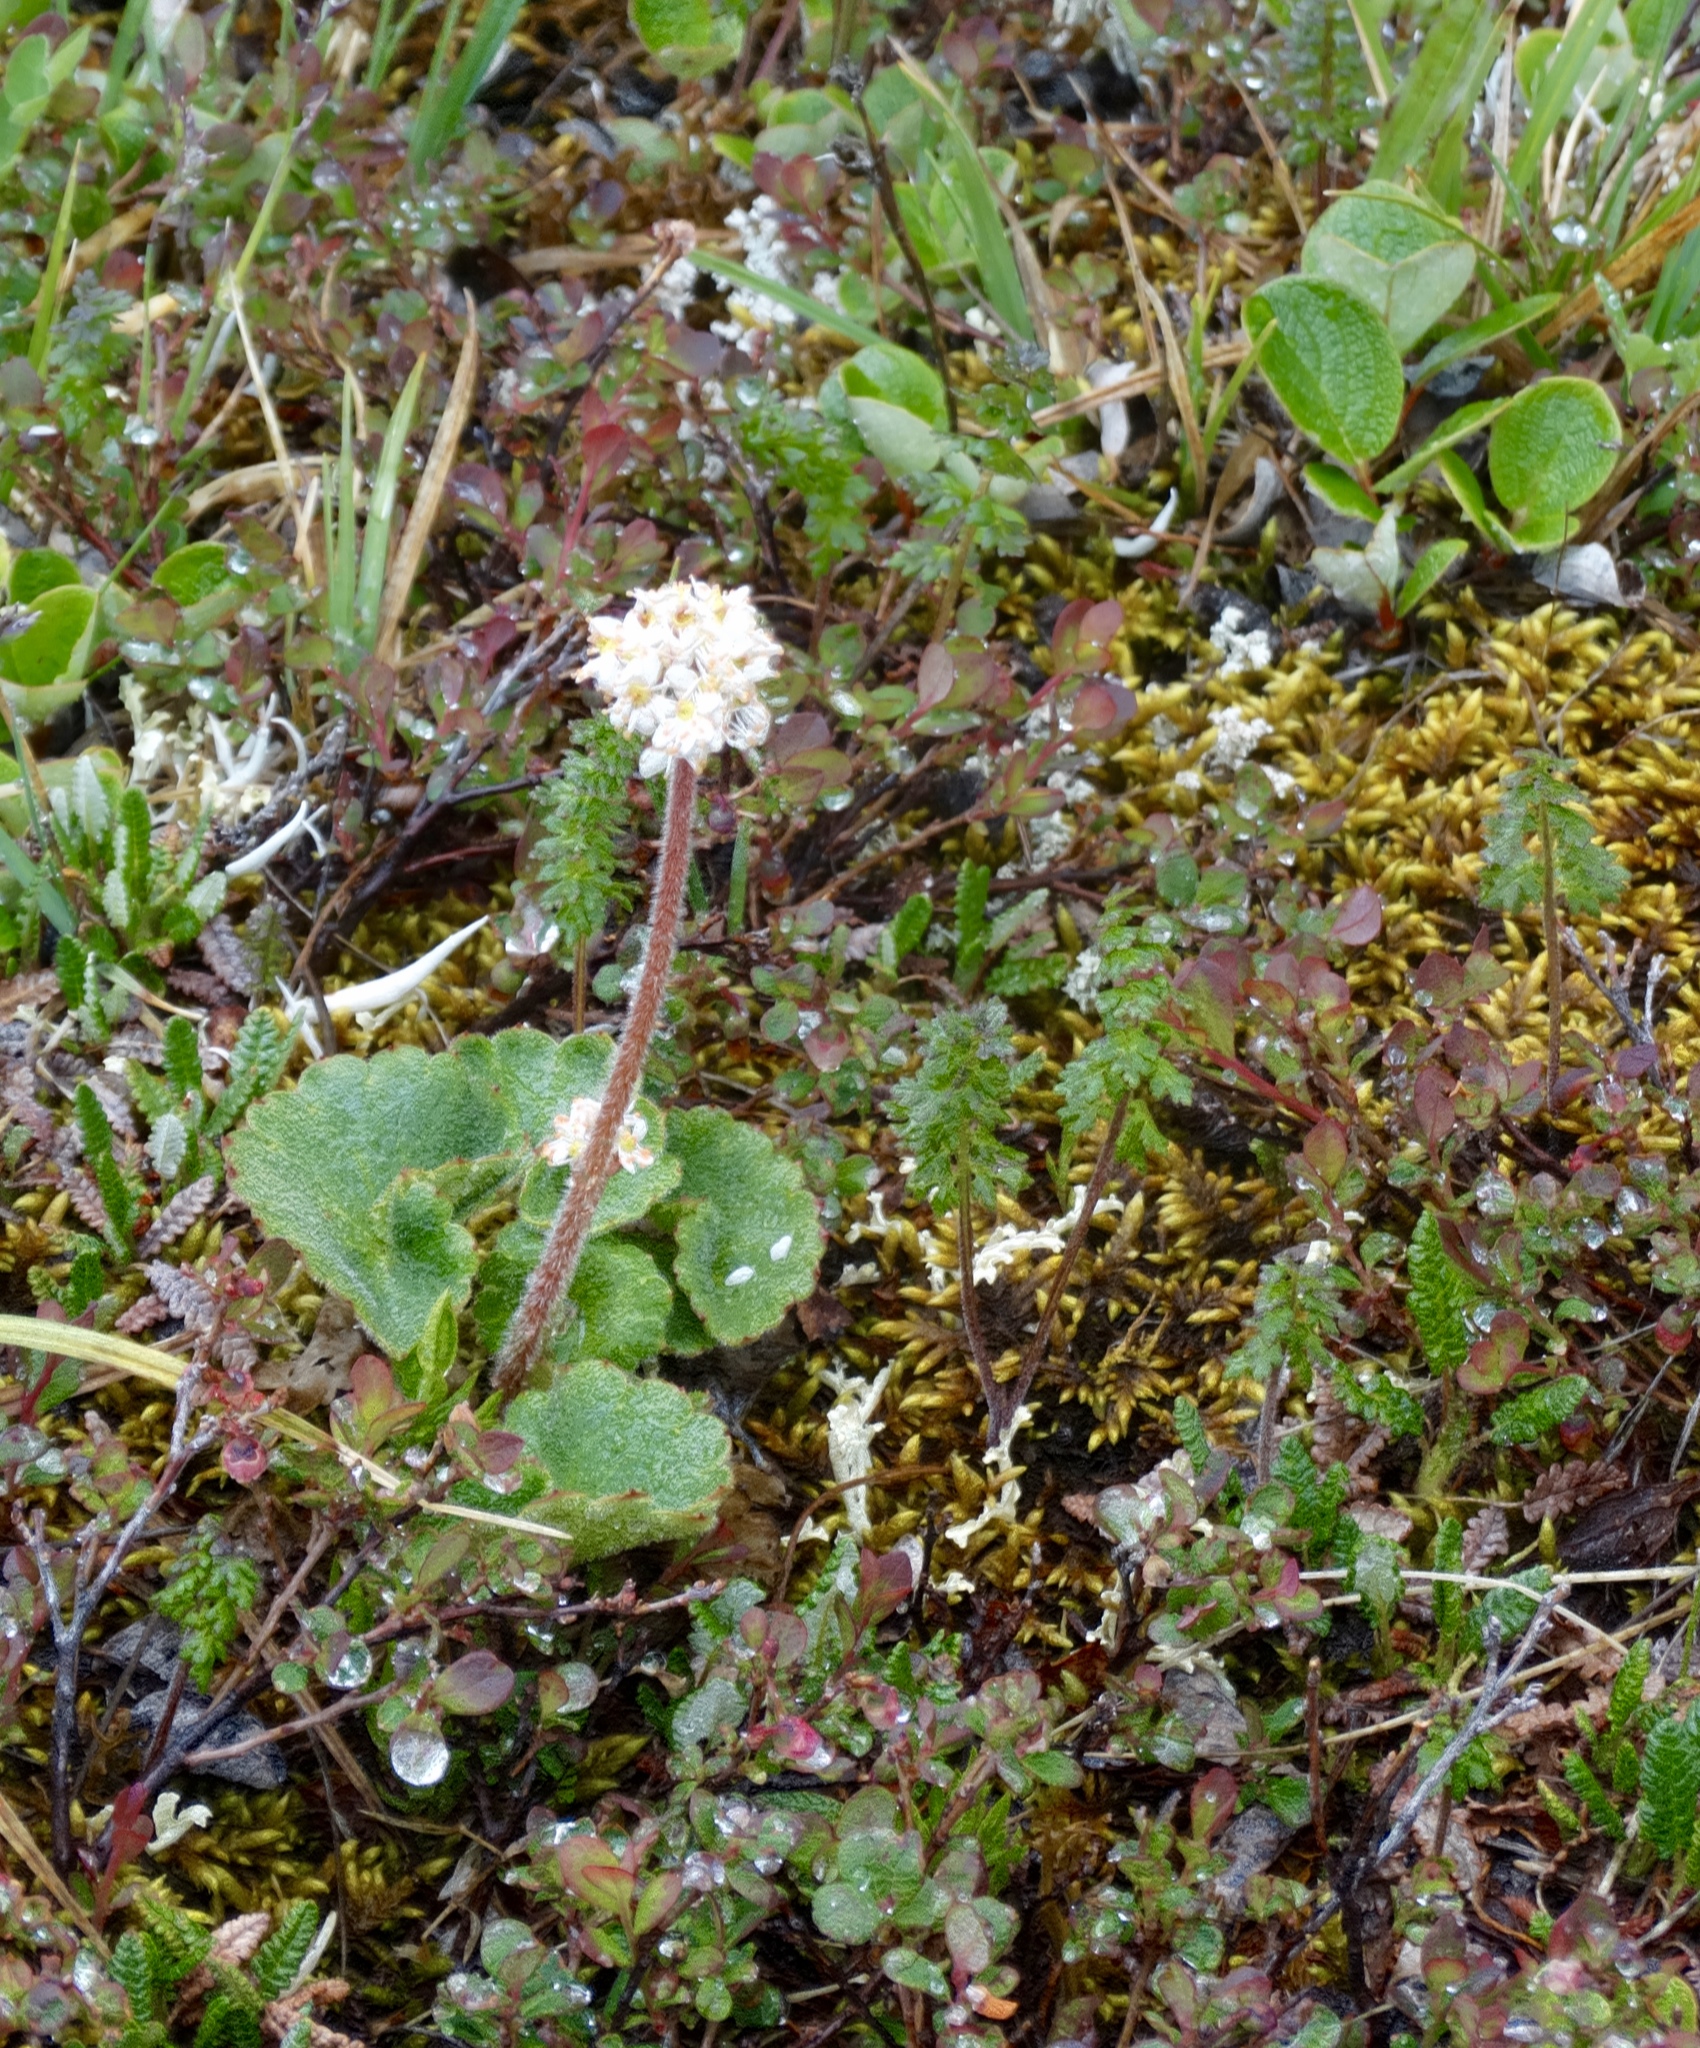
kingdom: Plantae
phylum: Tracheophyta
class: Magnoliopsida
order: Saxifragales
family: Saxifragaceae
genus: Micranthes
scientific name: Micranthes nelsoniana
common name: Nelson's saxifrage
